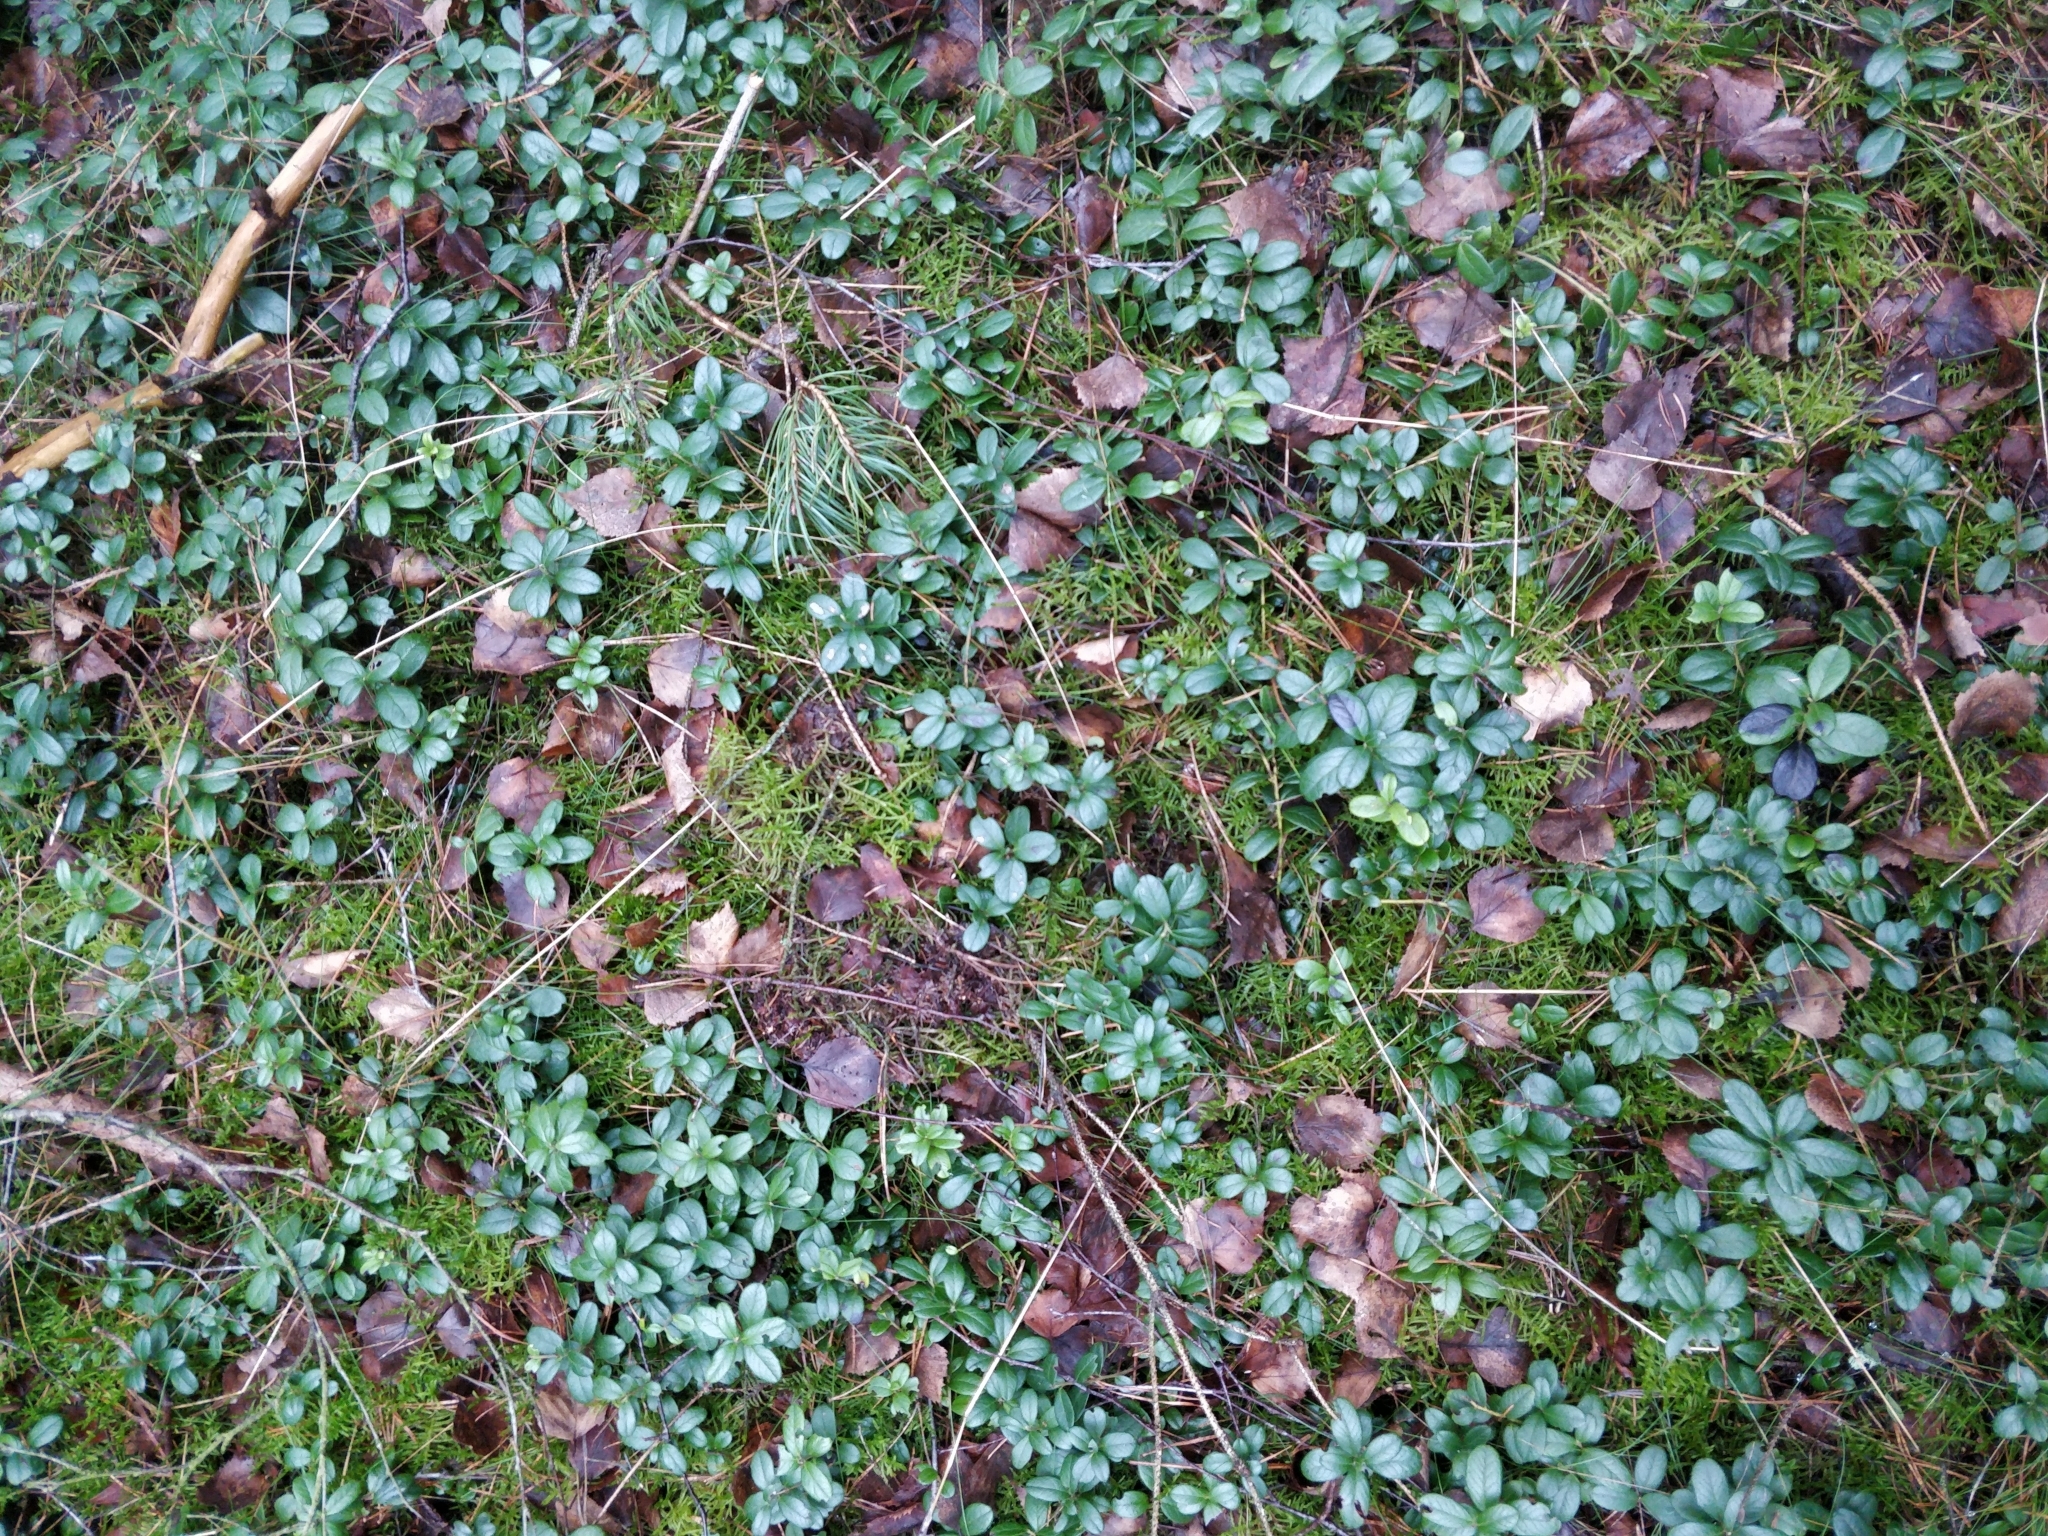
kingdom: Plantae
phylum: Tracheophyta
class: Magnoliopsida
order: Ericales
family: Ericaceae
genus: Vaccinium
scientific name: Vaccinium vitis-idaea
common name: Cowberry
